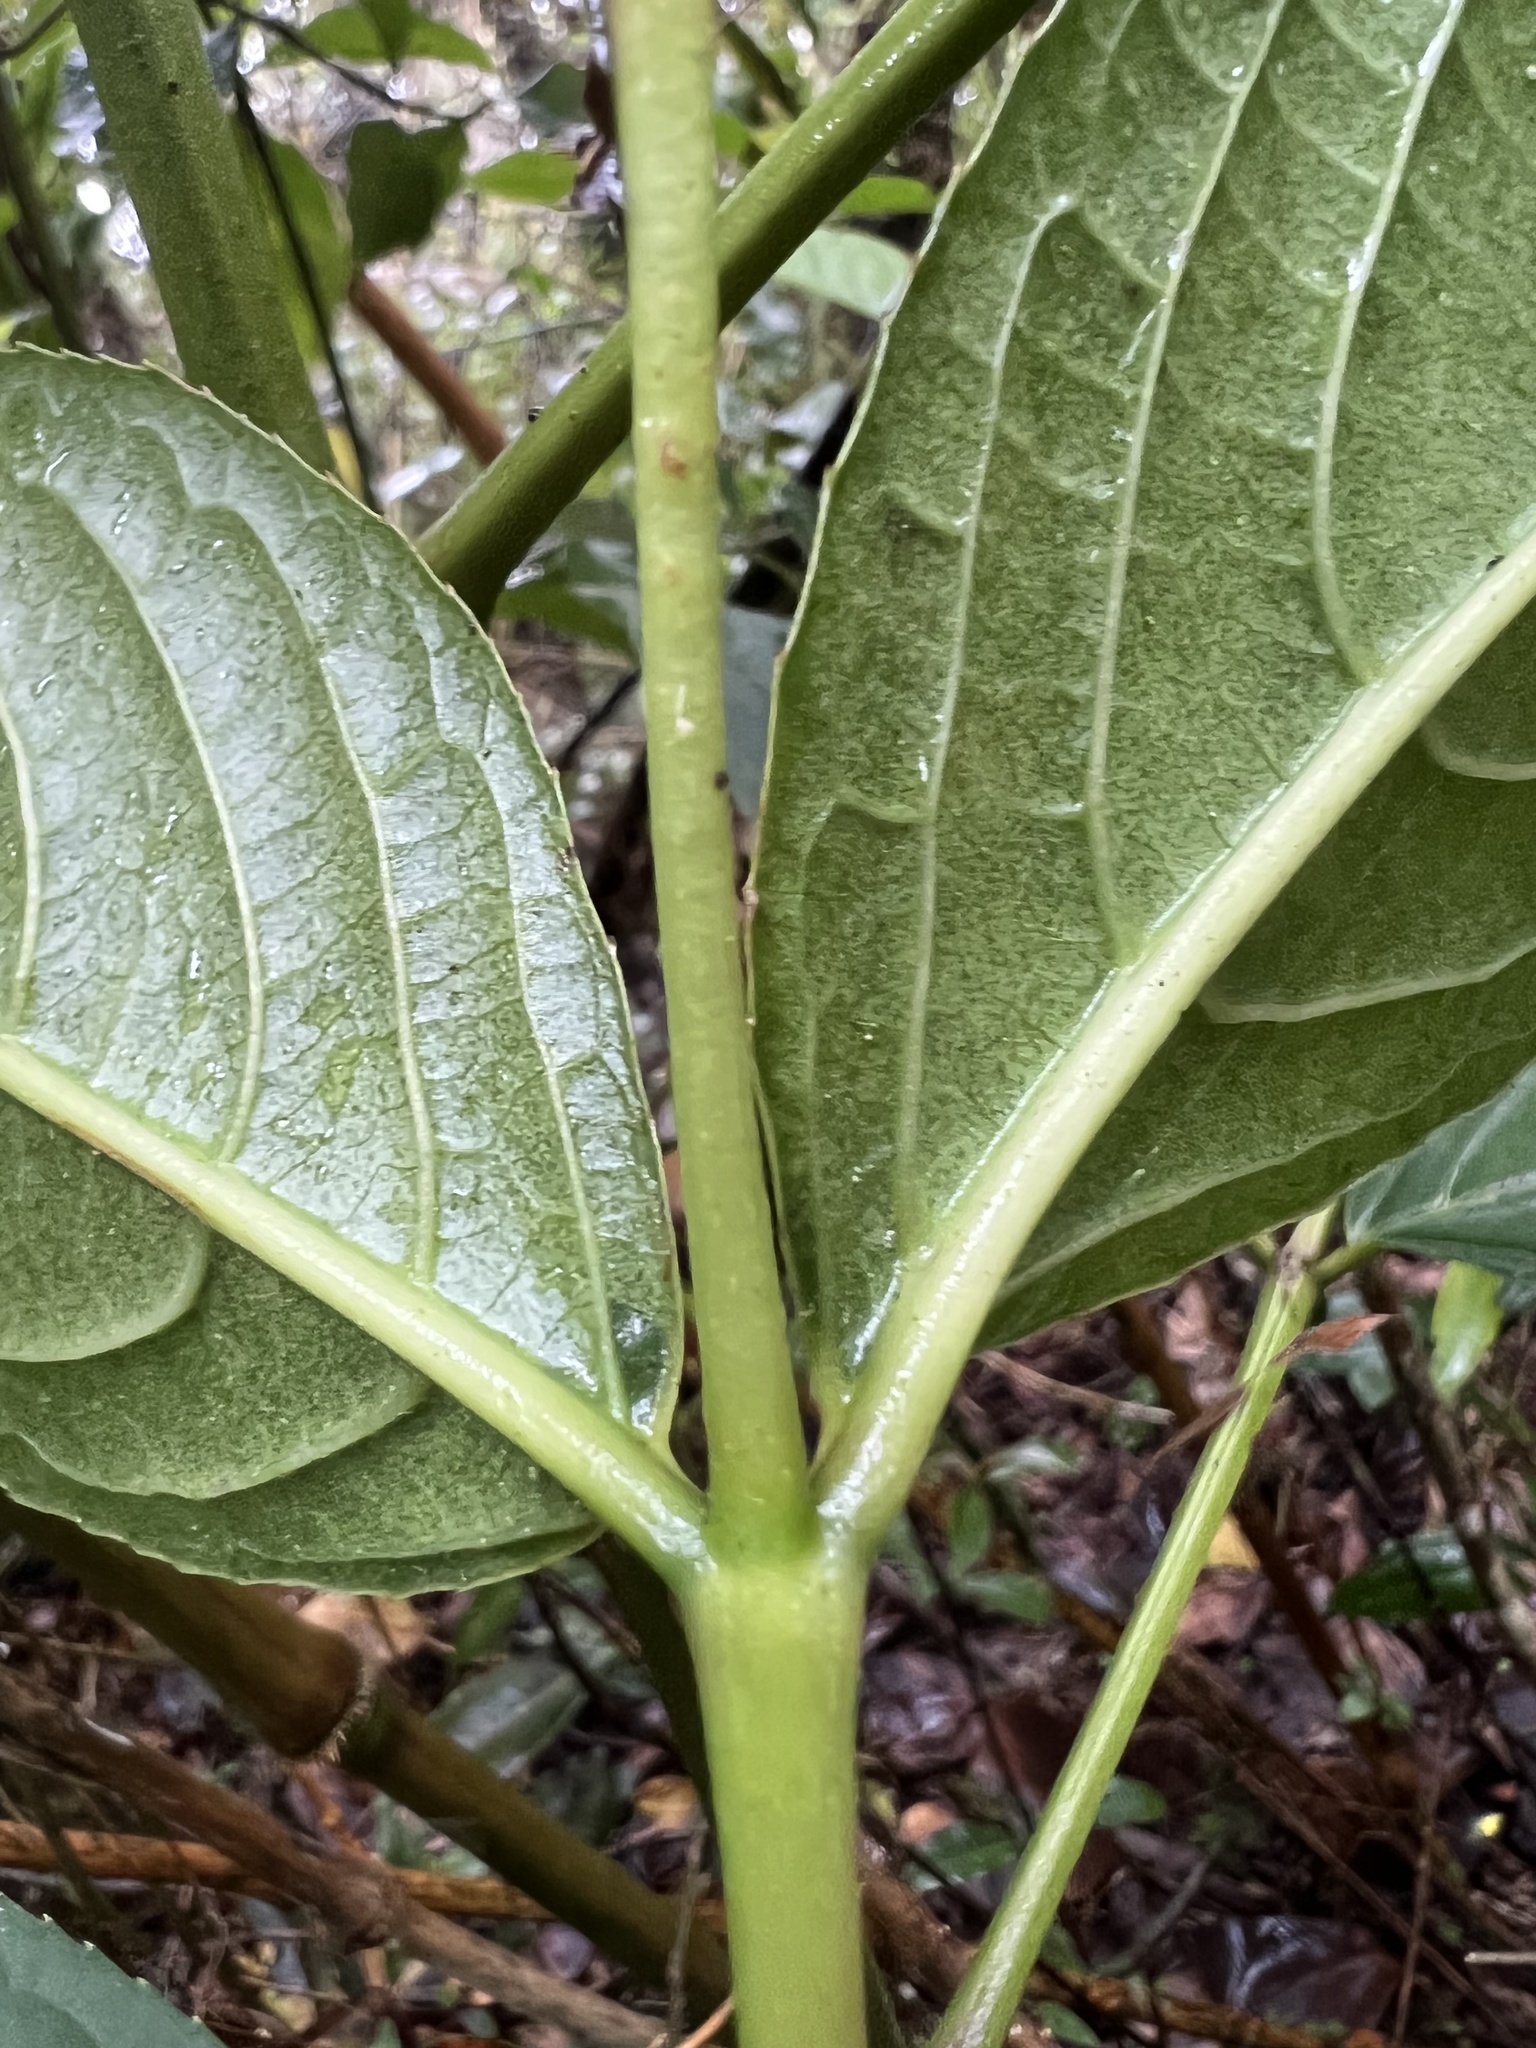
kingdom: Plantae
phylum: Tracheophyta
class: Magnoliopsida
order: Crossosomatales
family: Staphyleaceae
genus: Turpinia
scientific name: Turpinia occidentalis
